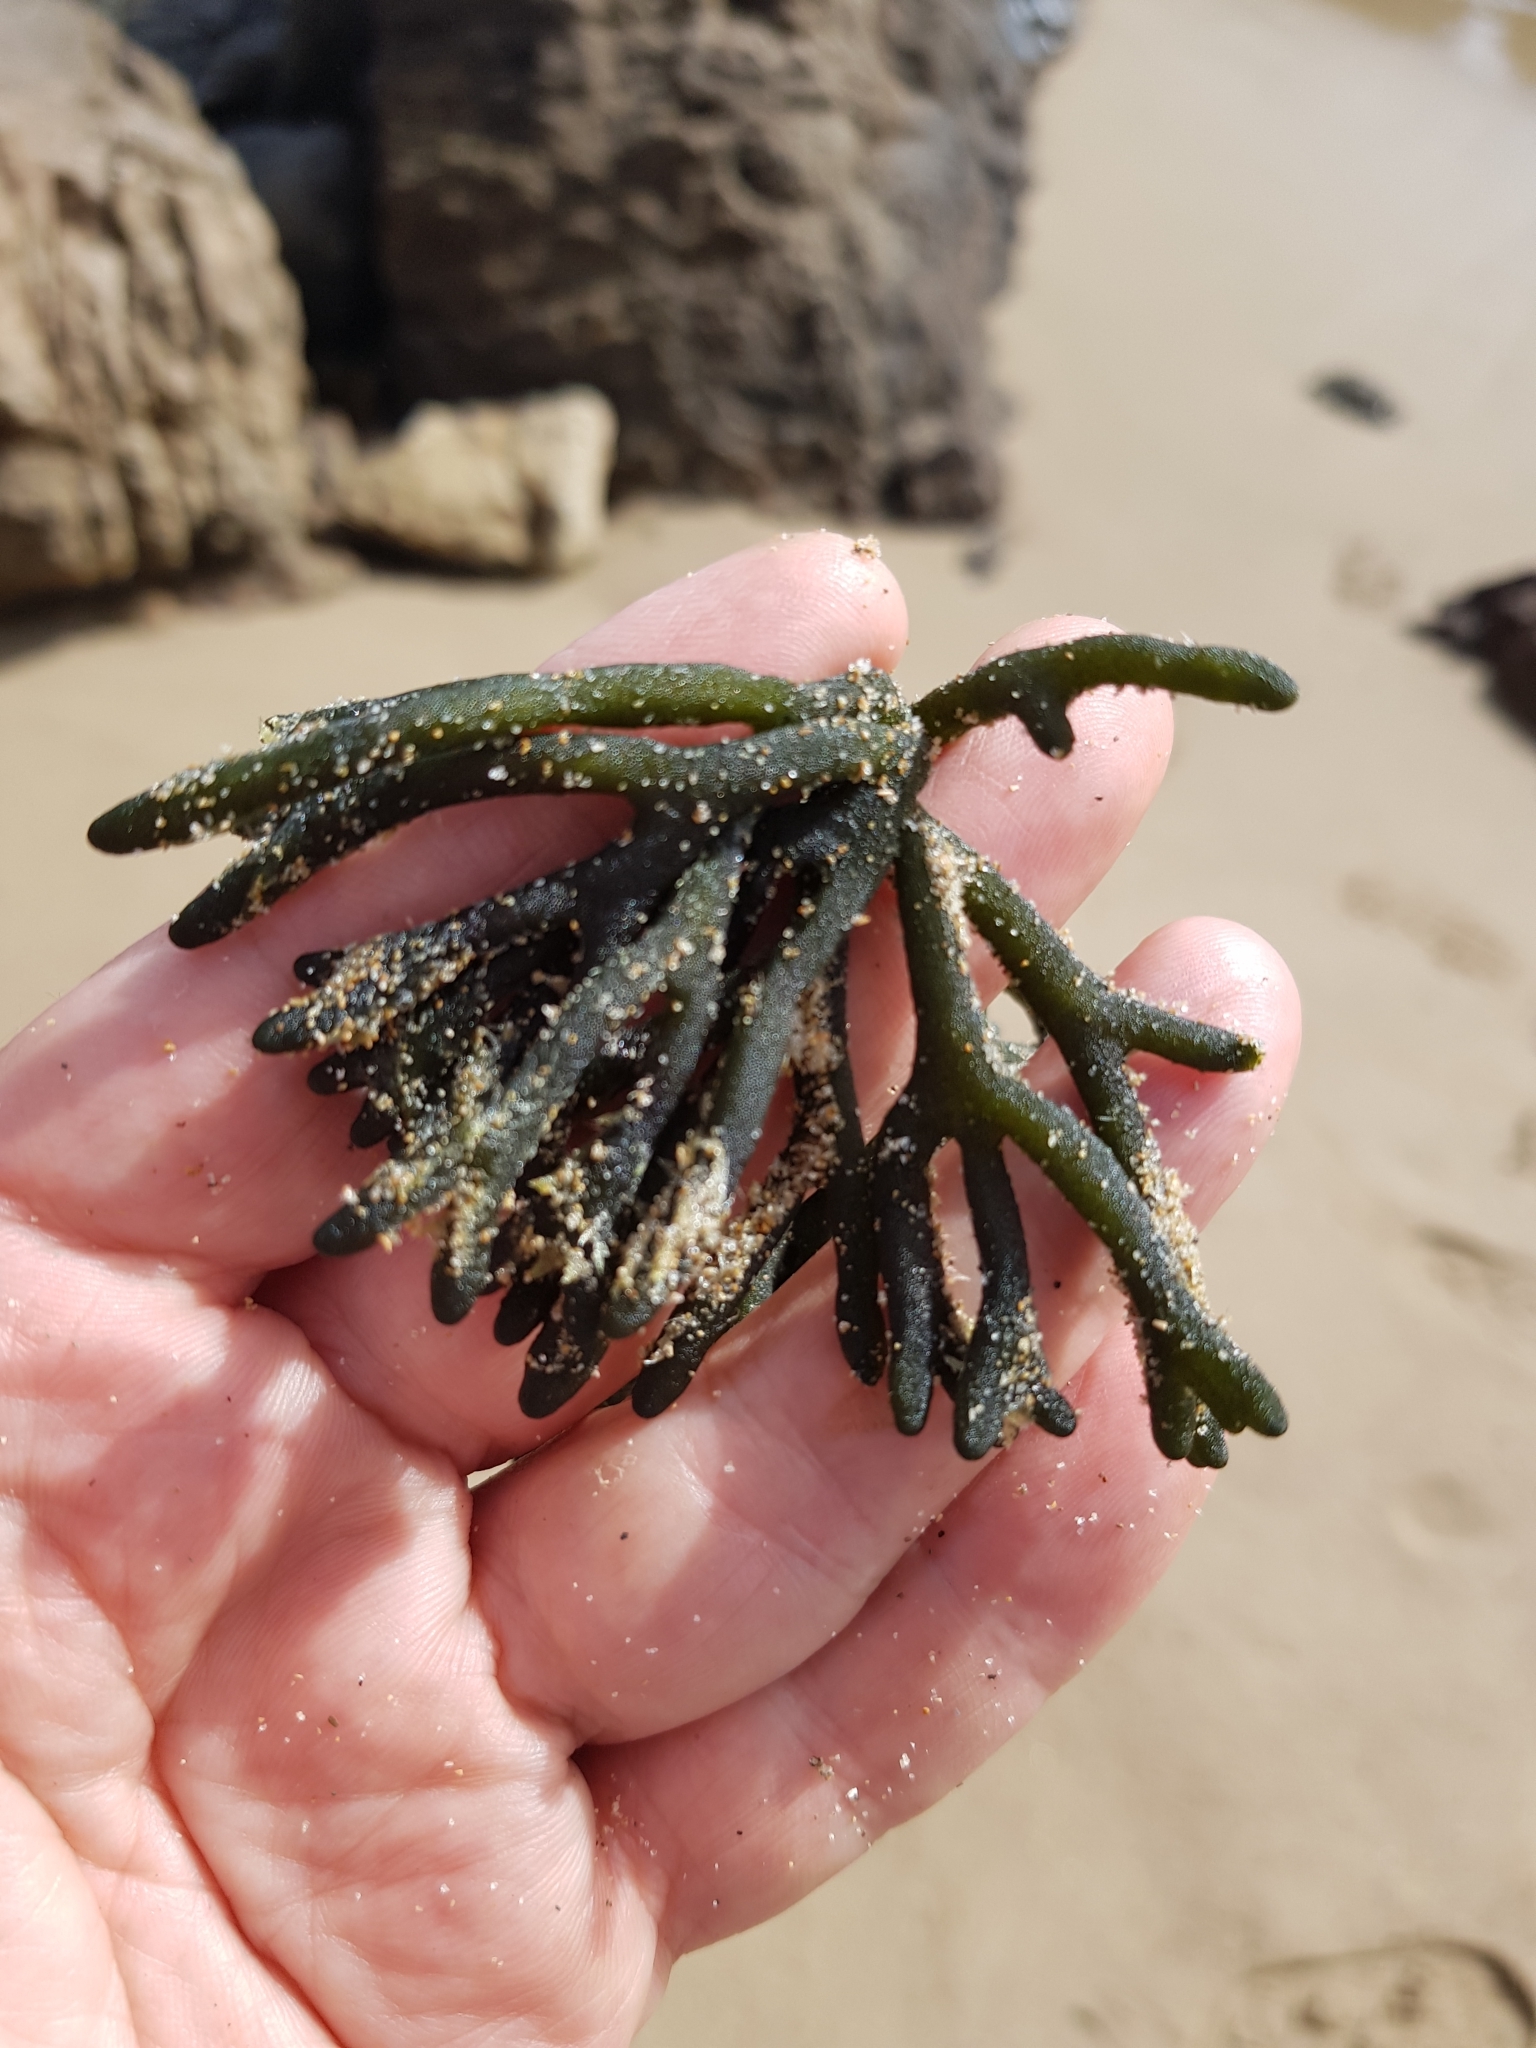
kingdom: Plantae
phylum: Chlorophyta
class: Ulvophyceae
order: Bryopsidales
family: Codiaceae
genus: Codium
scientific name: Codium fragile
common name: Dead man's fingers
